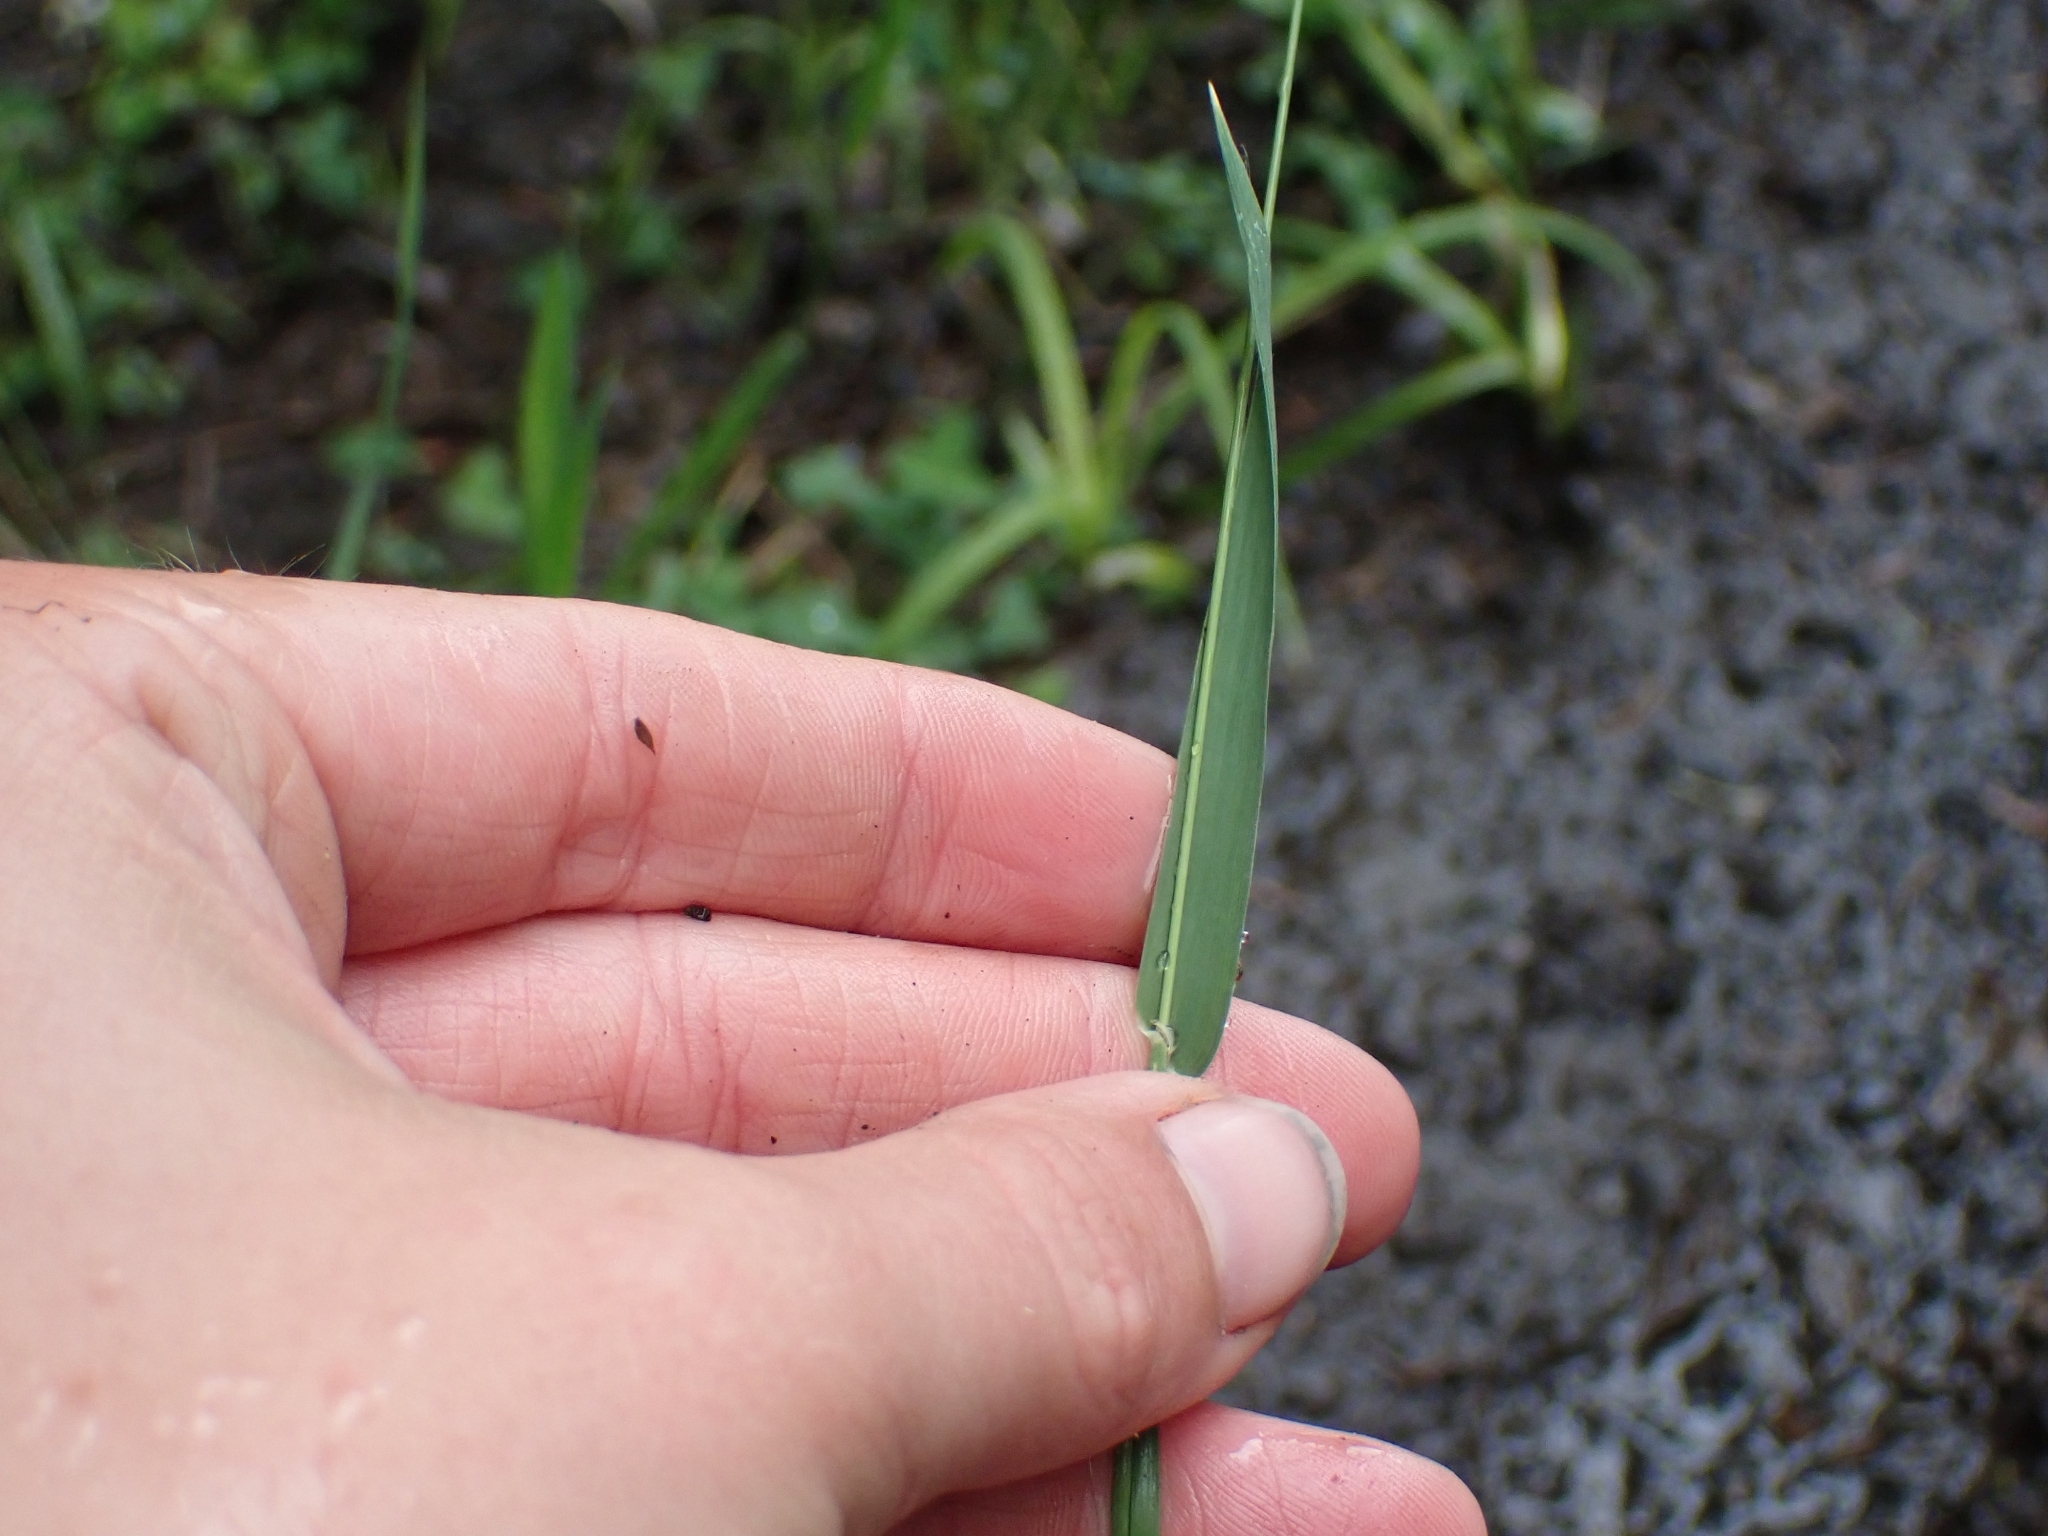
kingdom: Plantae
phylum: Tracheophyta
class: Liliopsida
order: Poales
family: Poaceae
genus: Phleum
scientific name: Phleum alpinum
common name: Alpine cat's-tail
